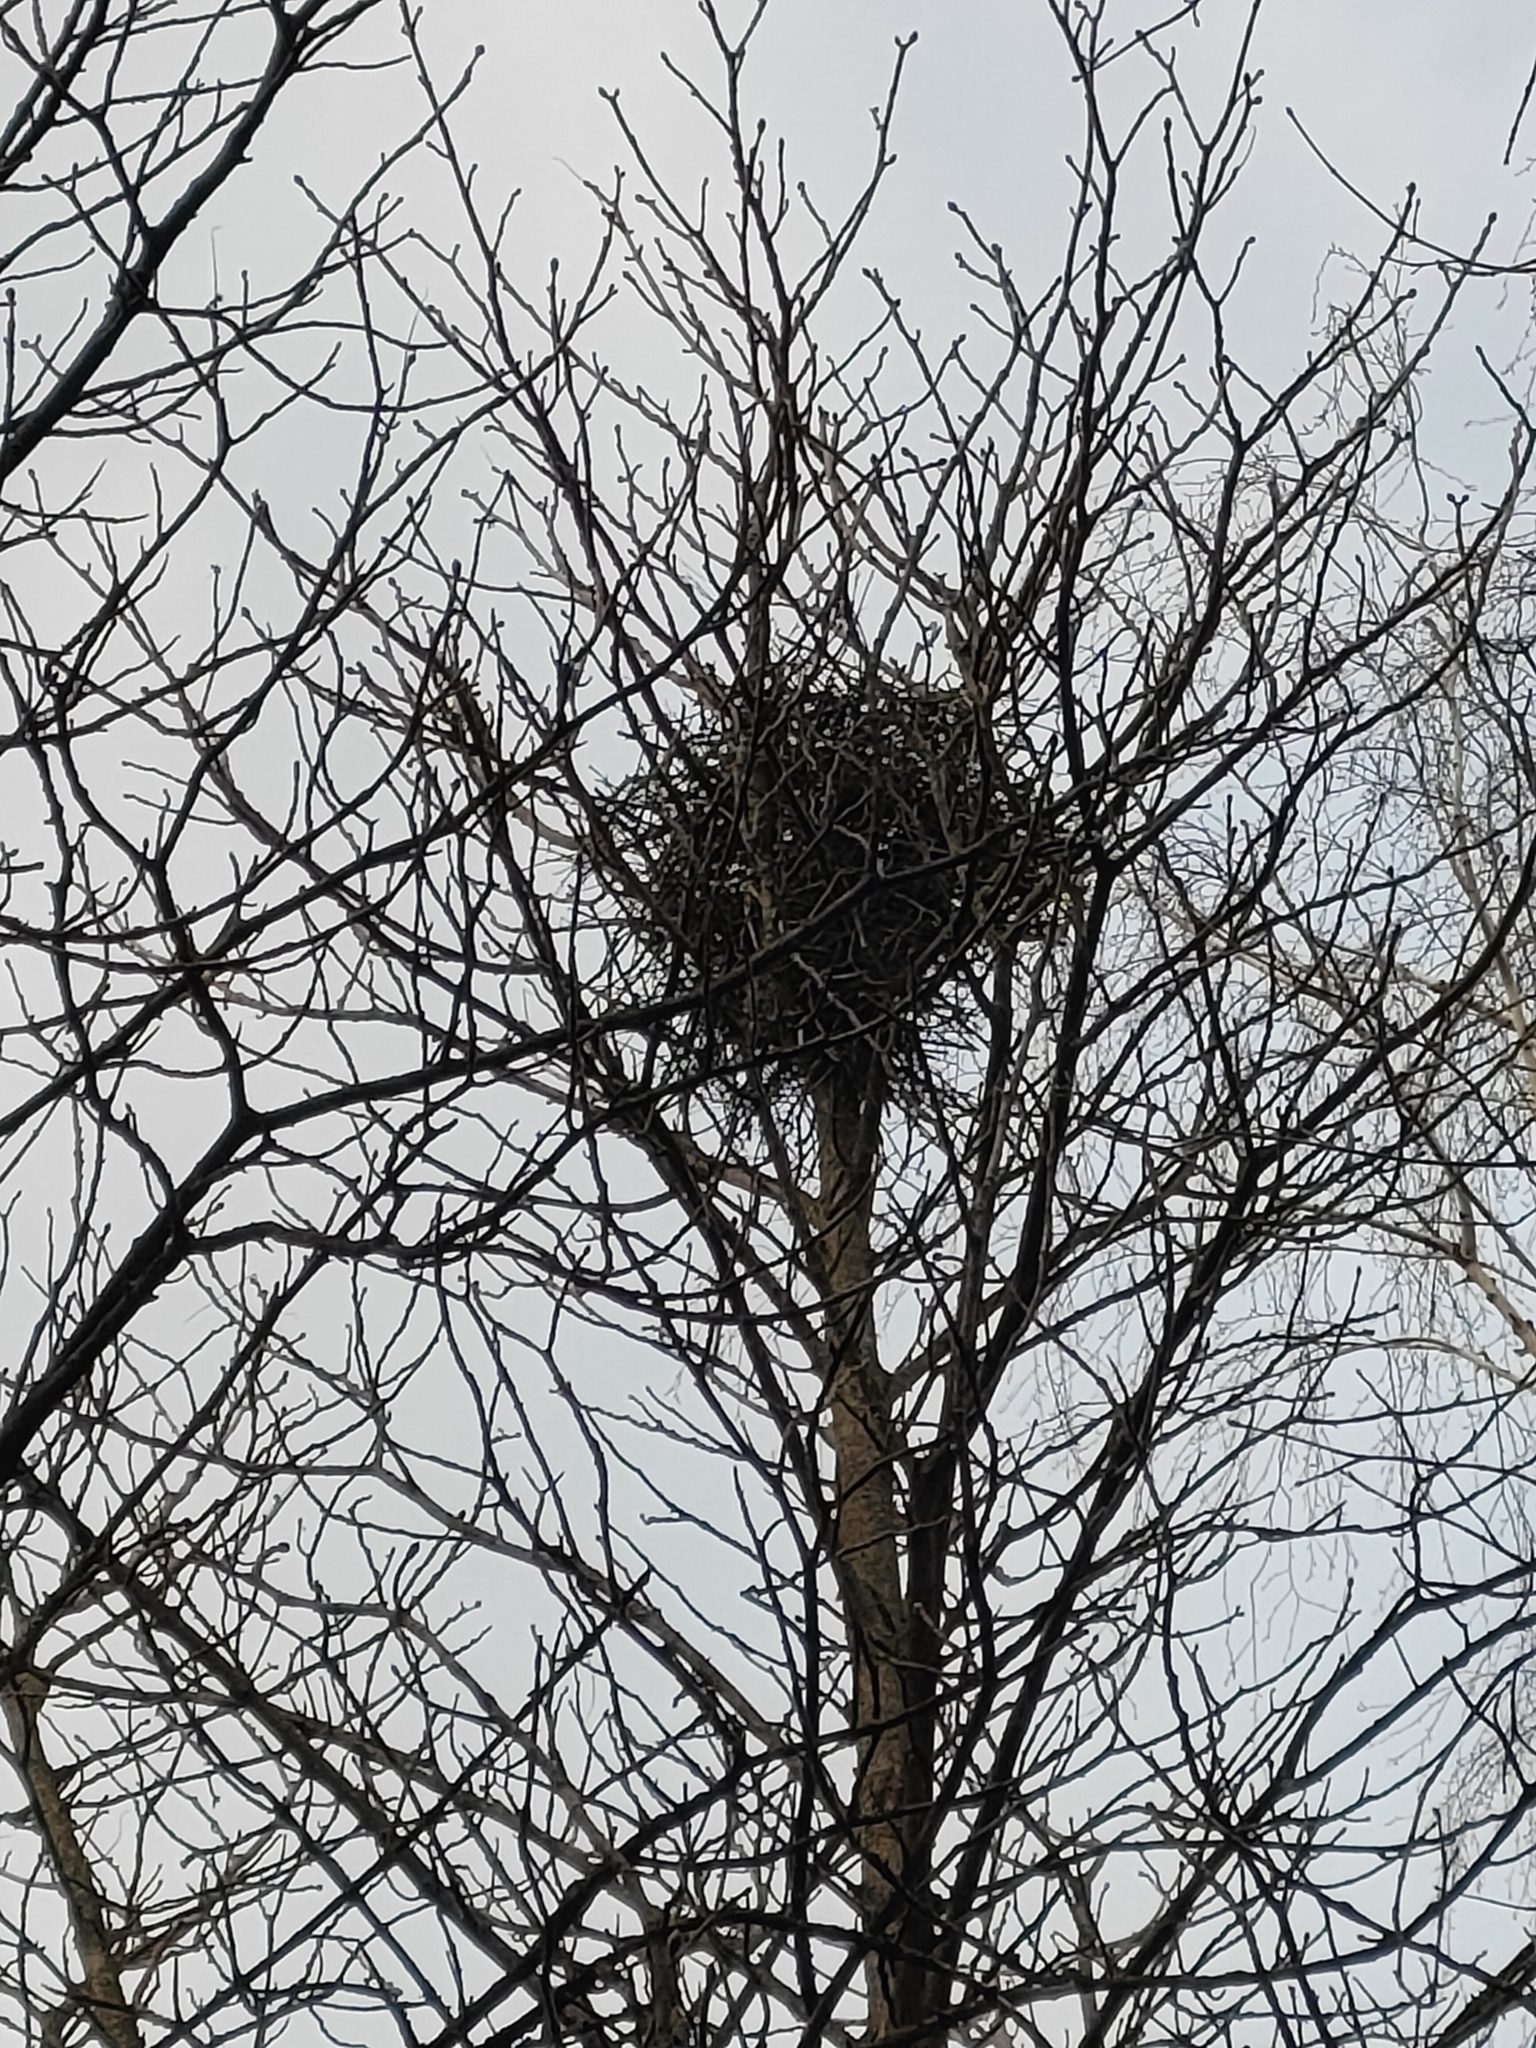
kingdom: Animalia
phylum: Chordata
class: Aves
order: Passeriformes
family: Corvidae
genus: Pica
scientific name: Pica pica
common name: Eurasian magpie
